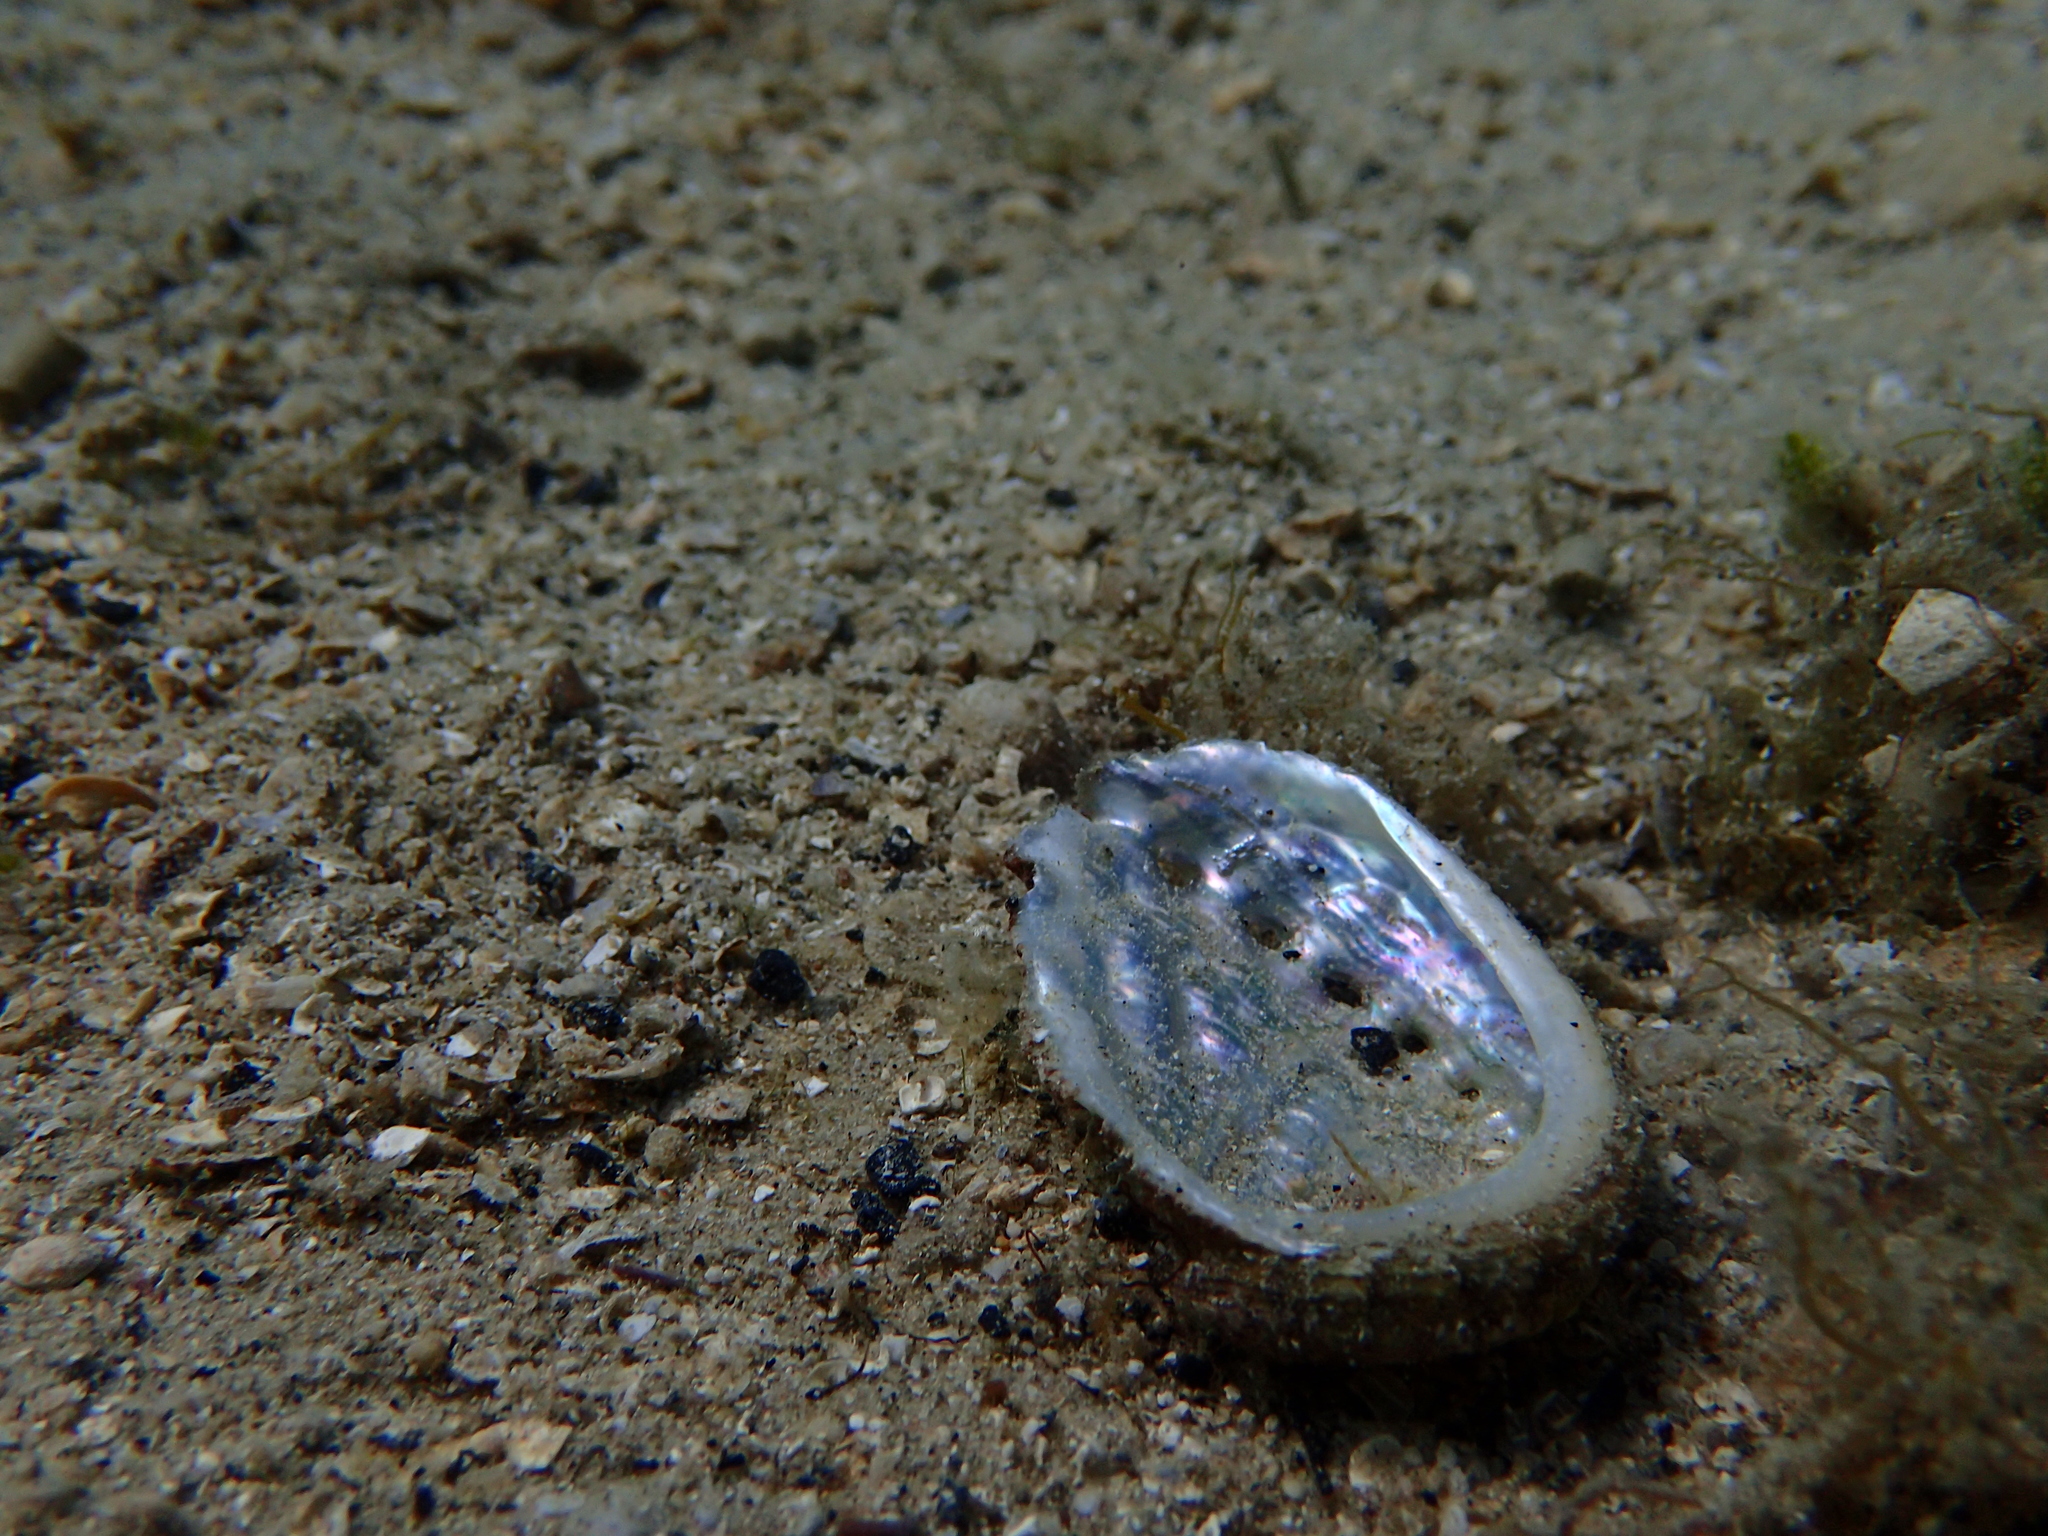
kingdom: Animalia
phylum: Mollusca
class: Gastropoda
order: Lepetellida
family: Haliotidae
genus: Haliotis
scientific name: Haliotis tuberculata
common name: Green ormer
